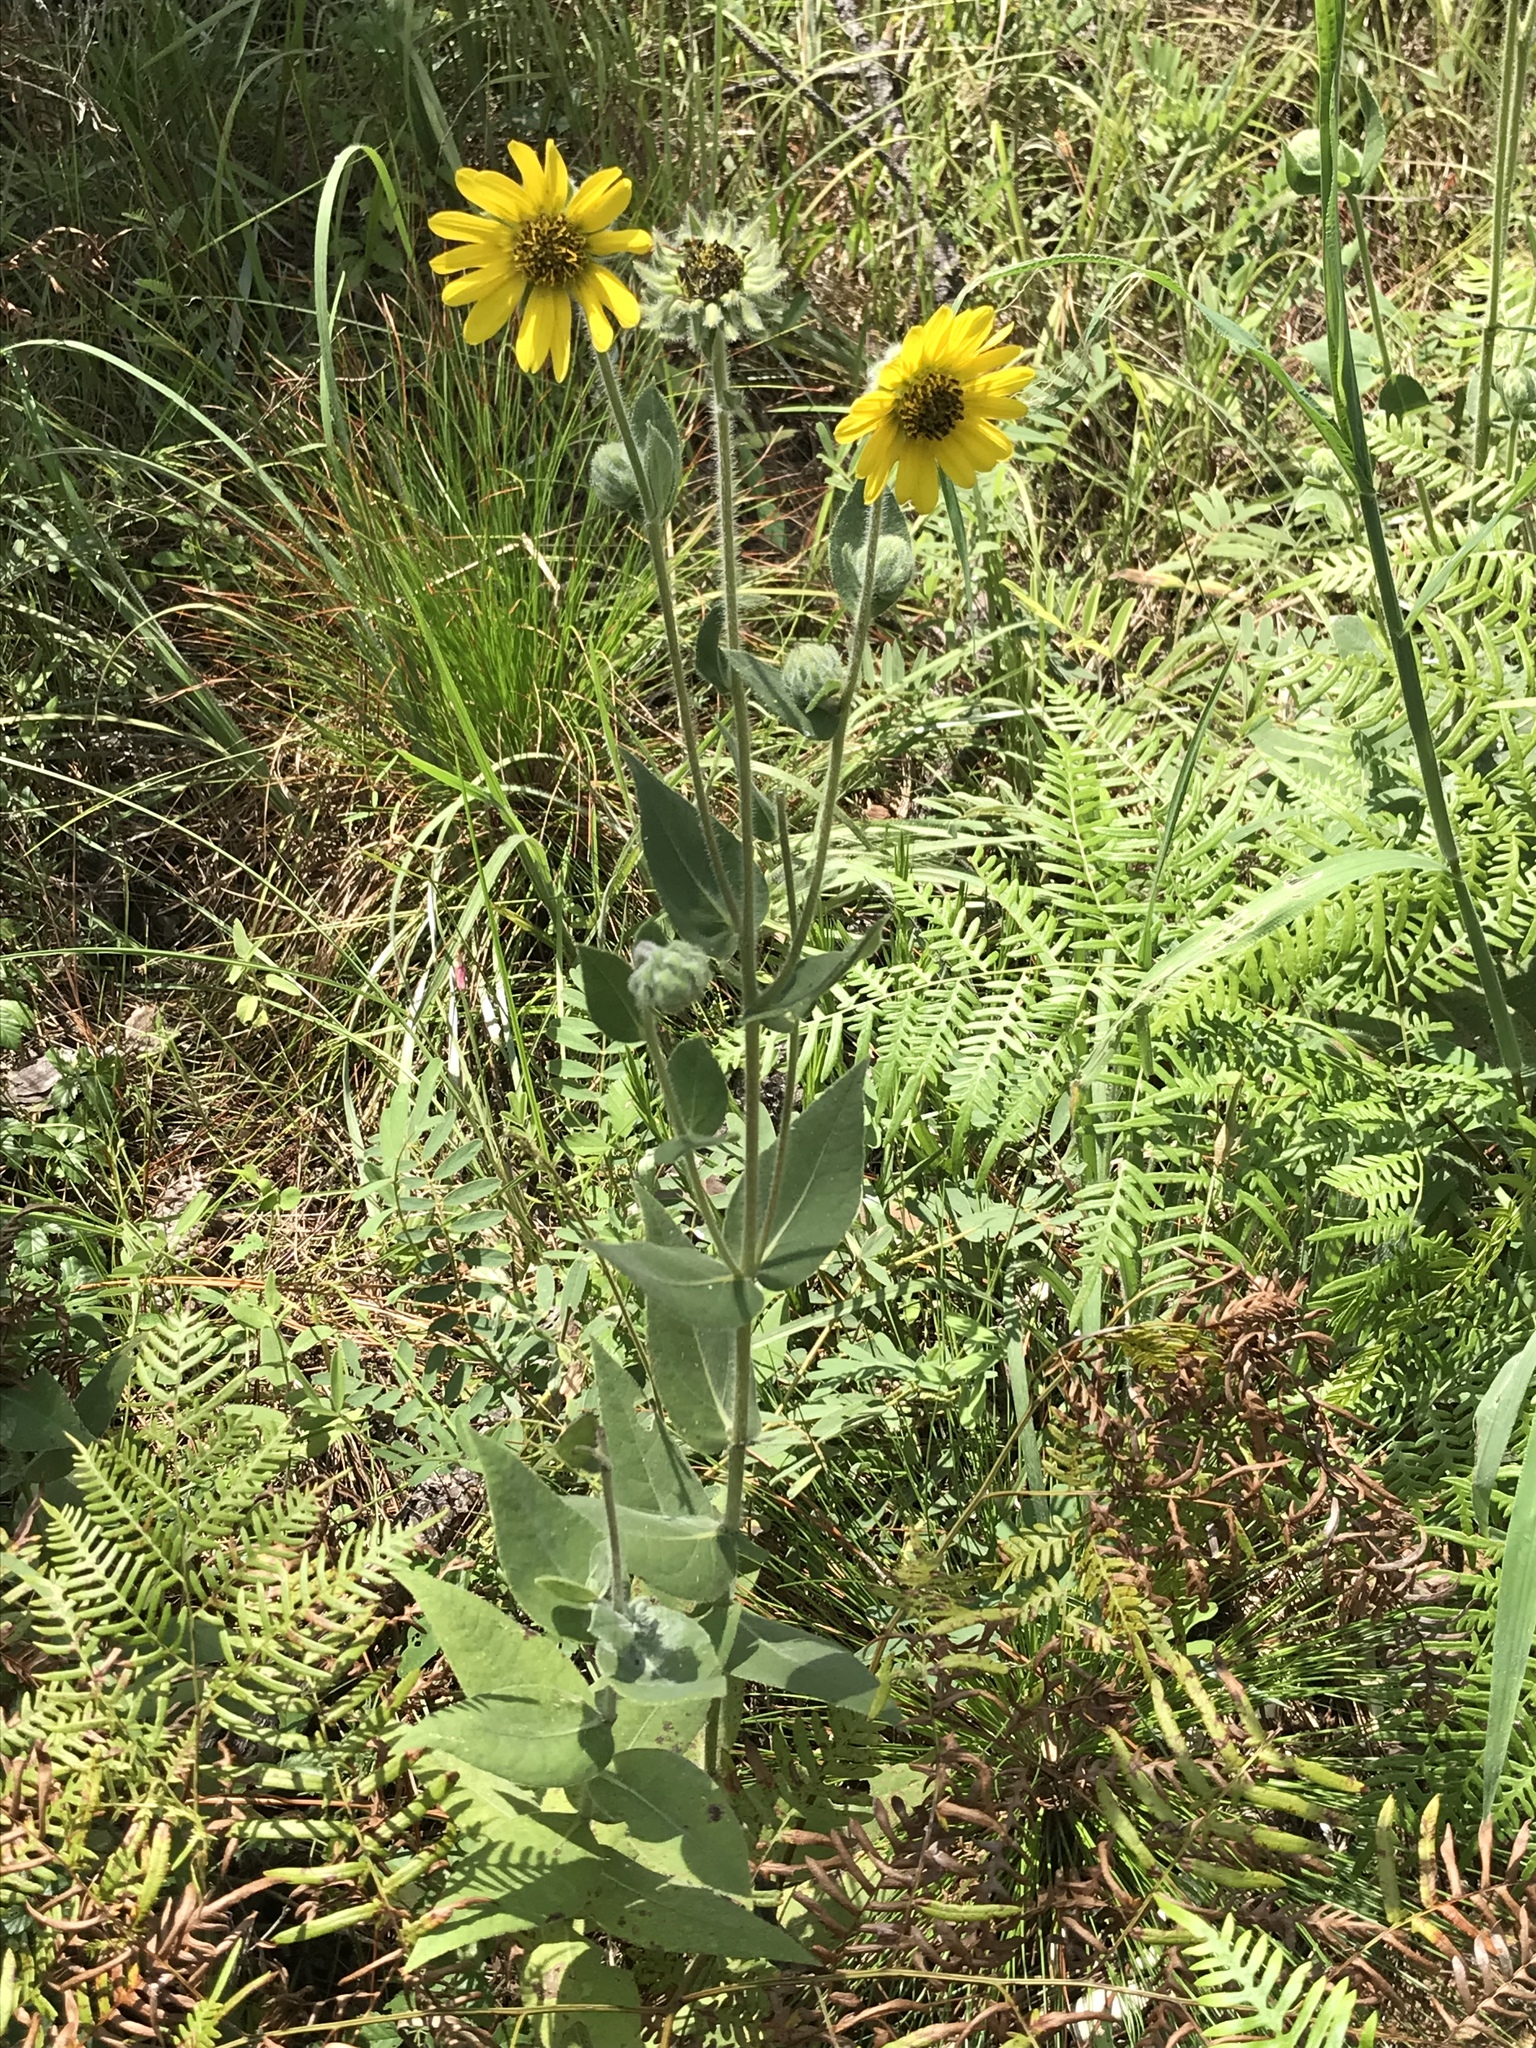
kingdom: Plantae
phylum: Tracheophyta
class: Magnoliopsida
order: Asterales
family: Asteraceae
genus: Helianthus
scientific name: Helianthus mollis
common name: Ashy sunflower
